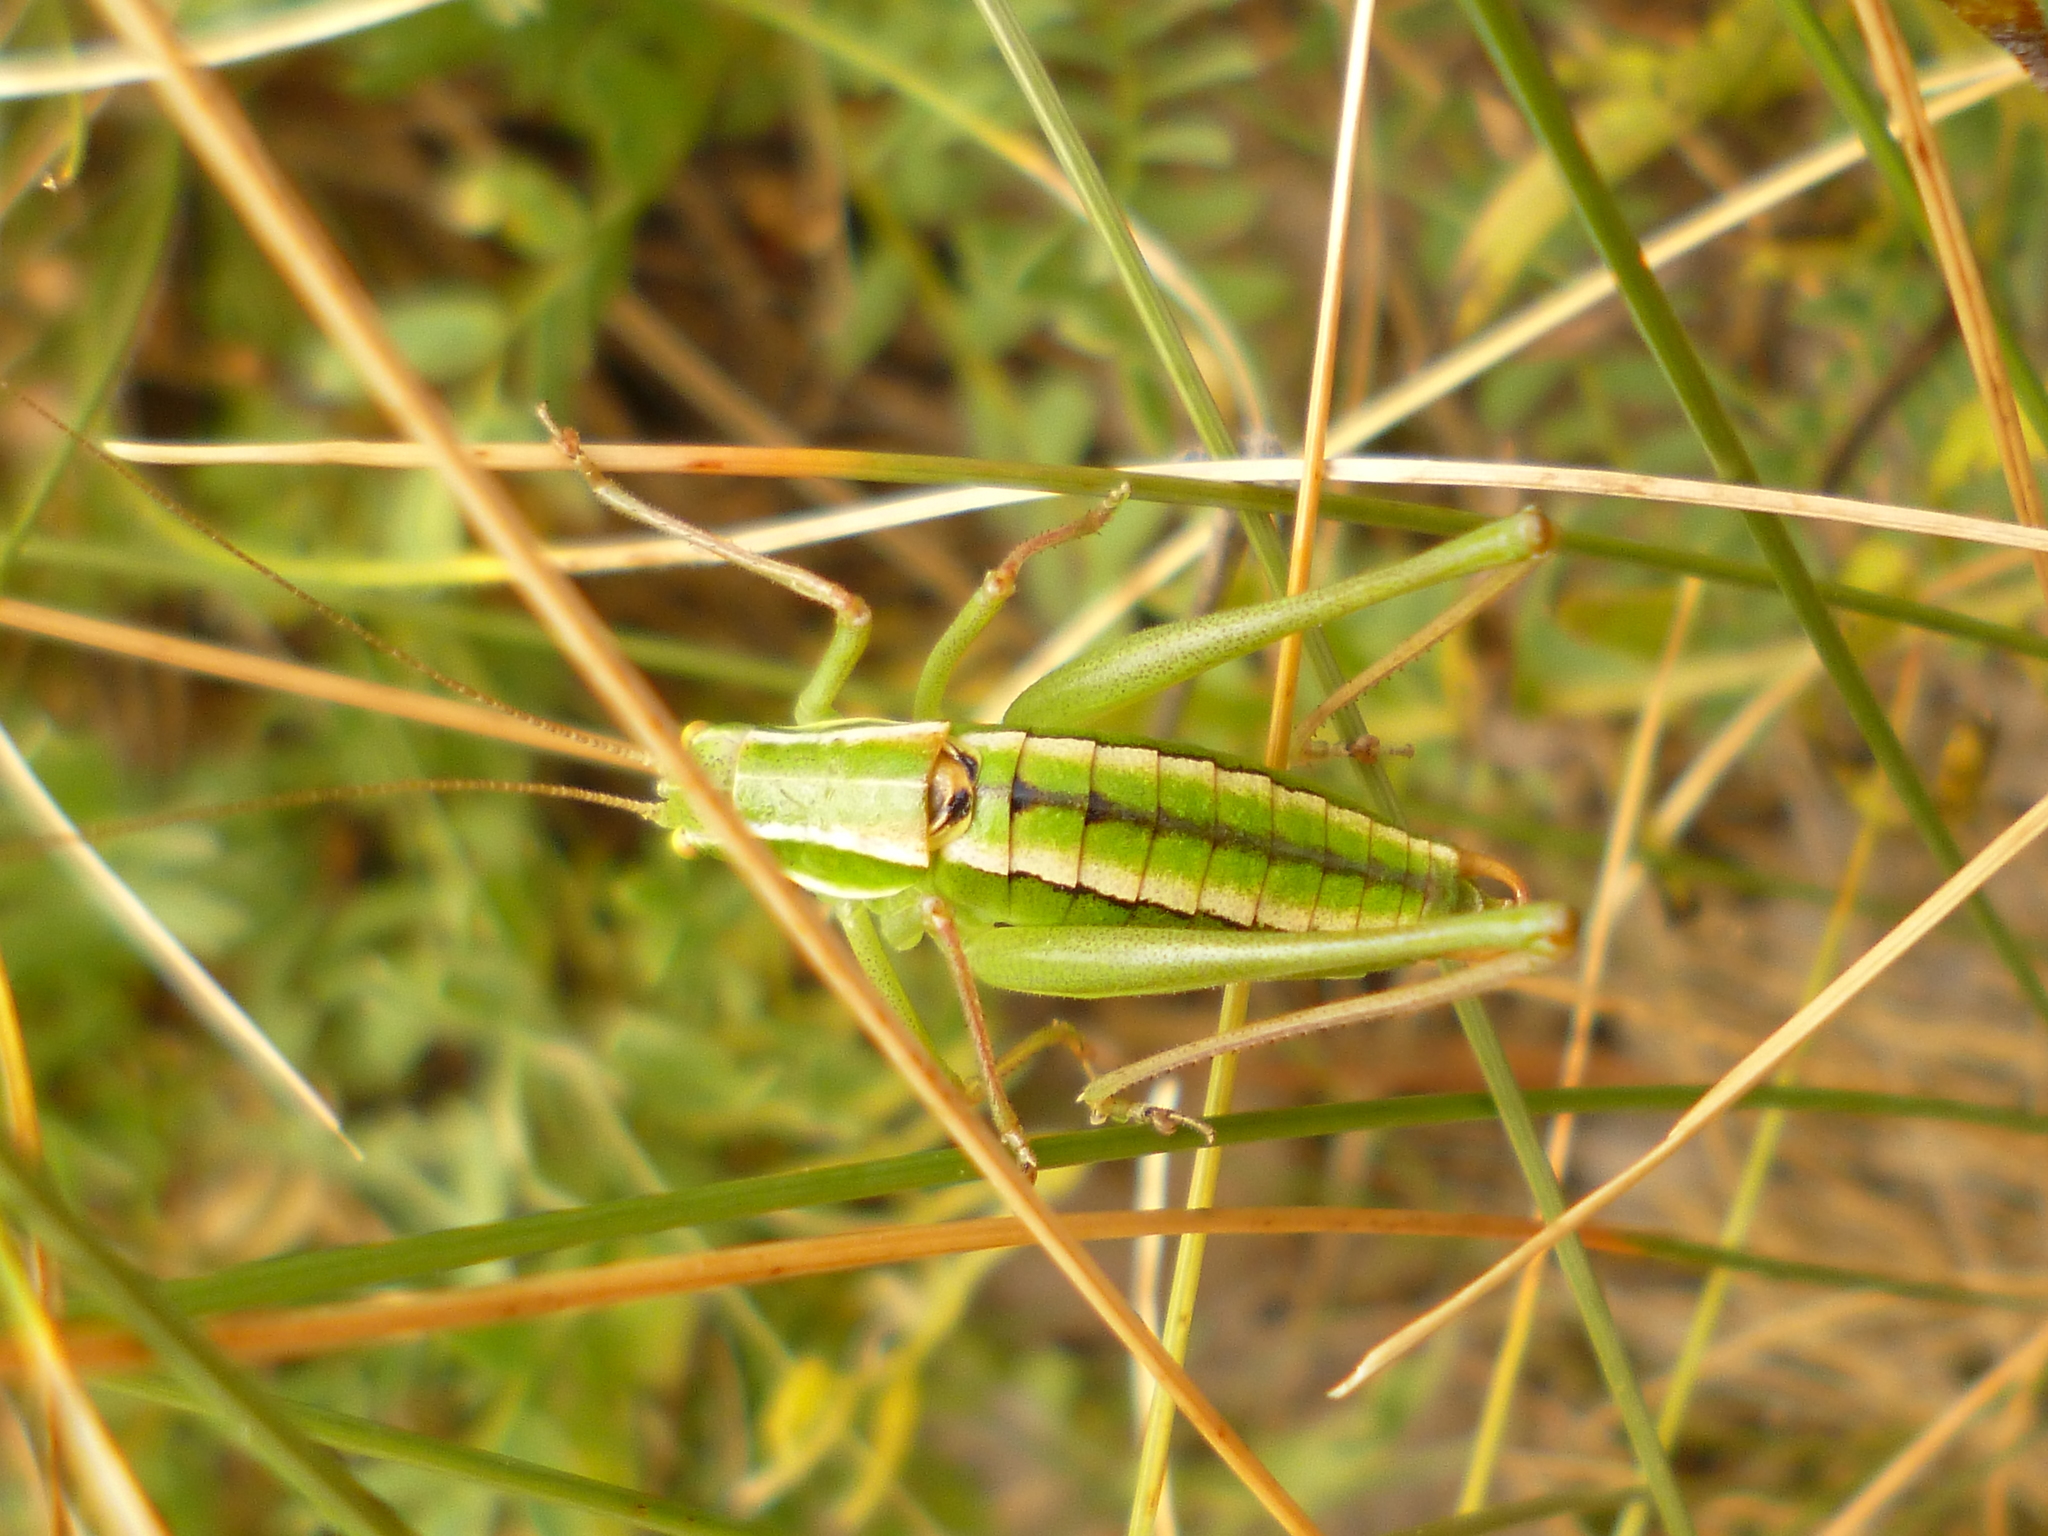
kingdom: Animalia
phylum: Arthropoda
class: Insecta
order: Orthoptera
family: Tettigoniidae
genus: Poecilimon
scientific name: Poecilimon elegans
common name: Elegant bright bush-cricket
